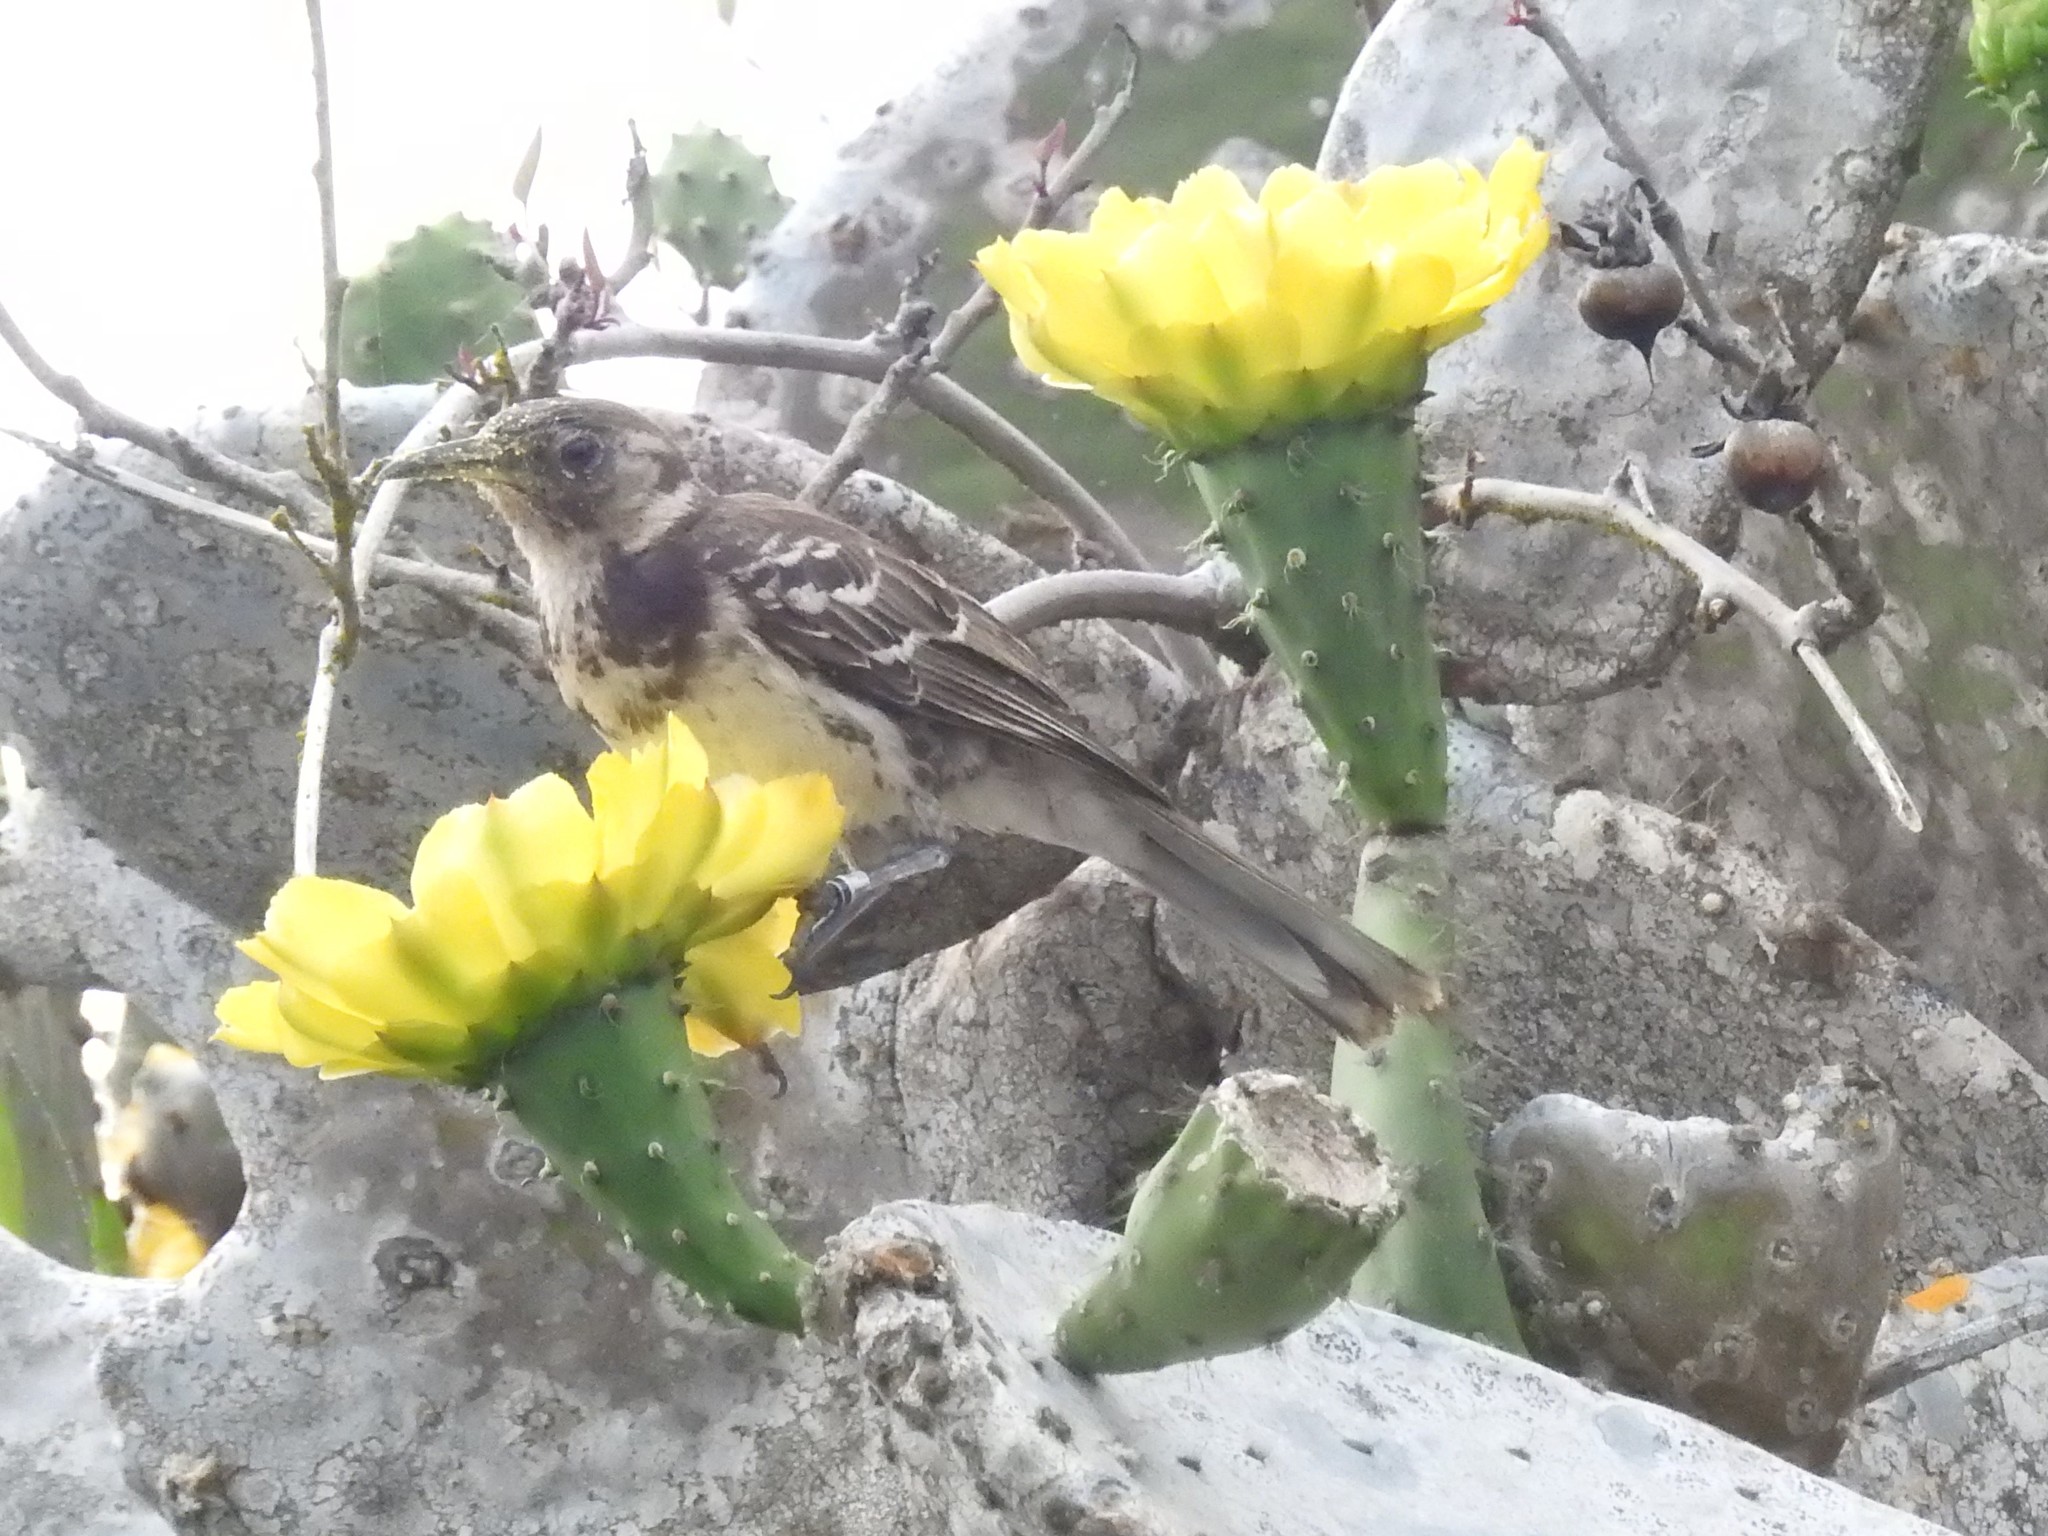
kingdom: Animalia
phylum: Chordata
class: Aves
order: Passeriformes
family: Mimidae
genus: Mimus
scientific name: Mimus trifasciatus
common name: Floreana mockingbird
